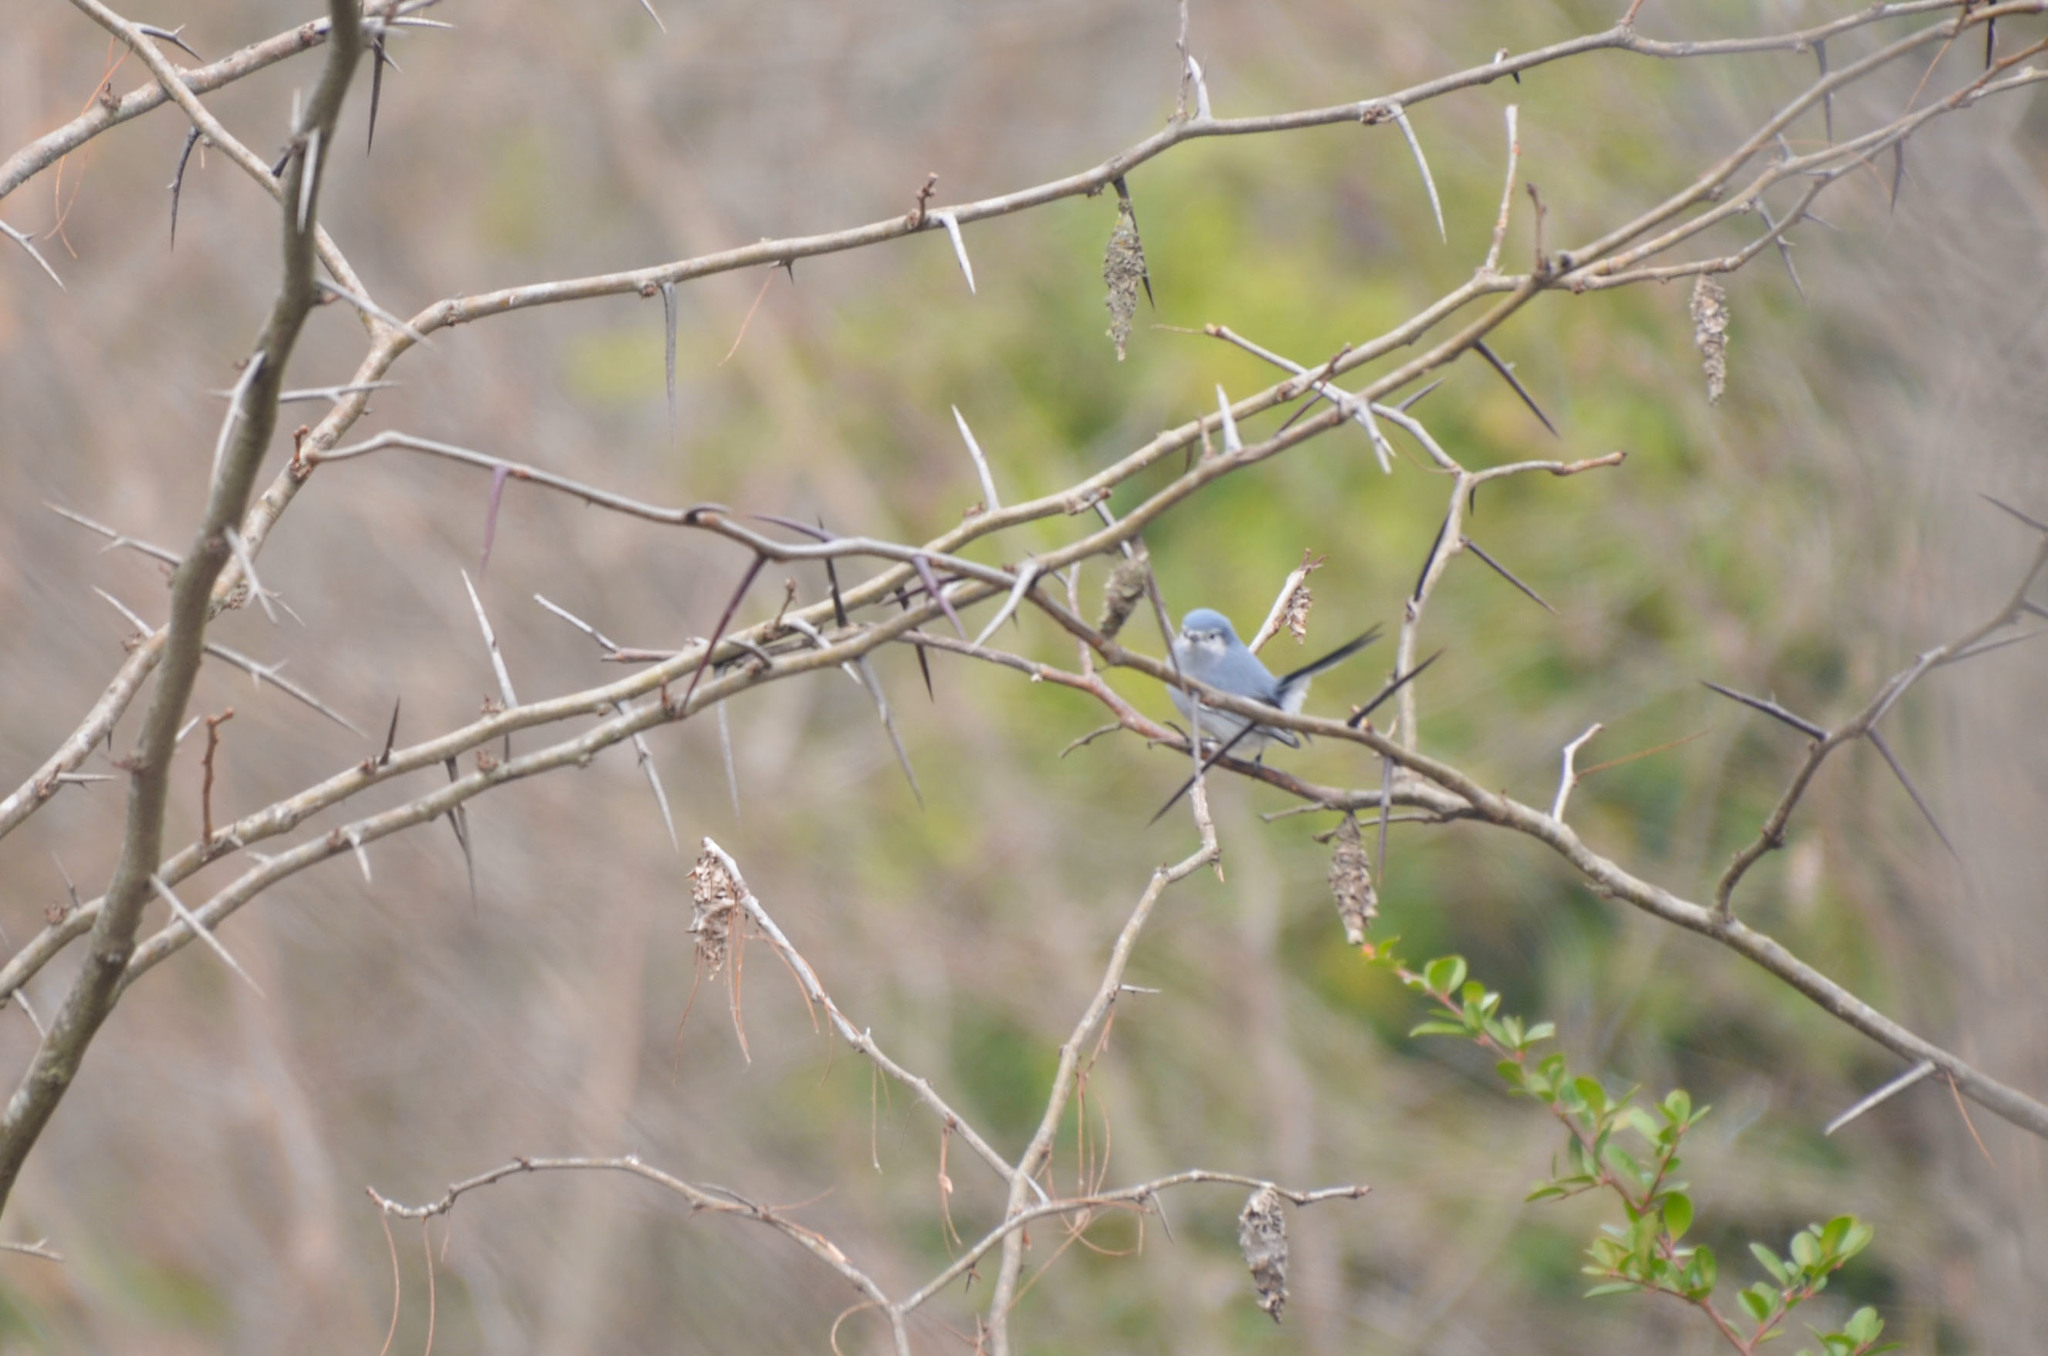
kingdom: Animalia
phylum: Chordata
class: Aves
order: Passeriformes
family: Polioptilidae
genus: Polioptila
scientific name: Polioptila dumicola
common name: Masked gnatcatcher
